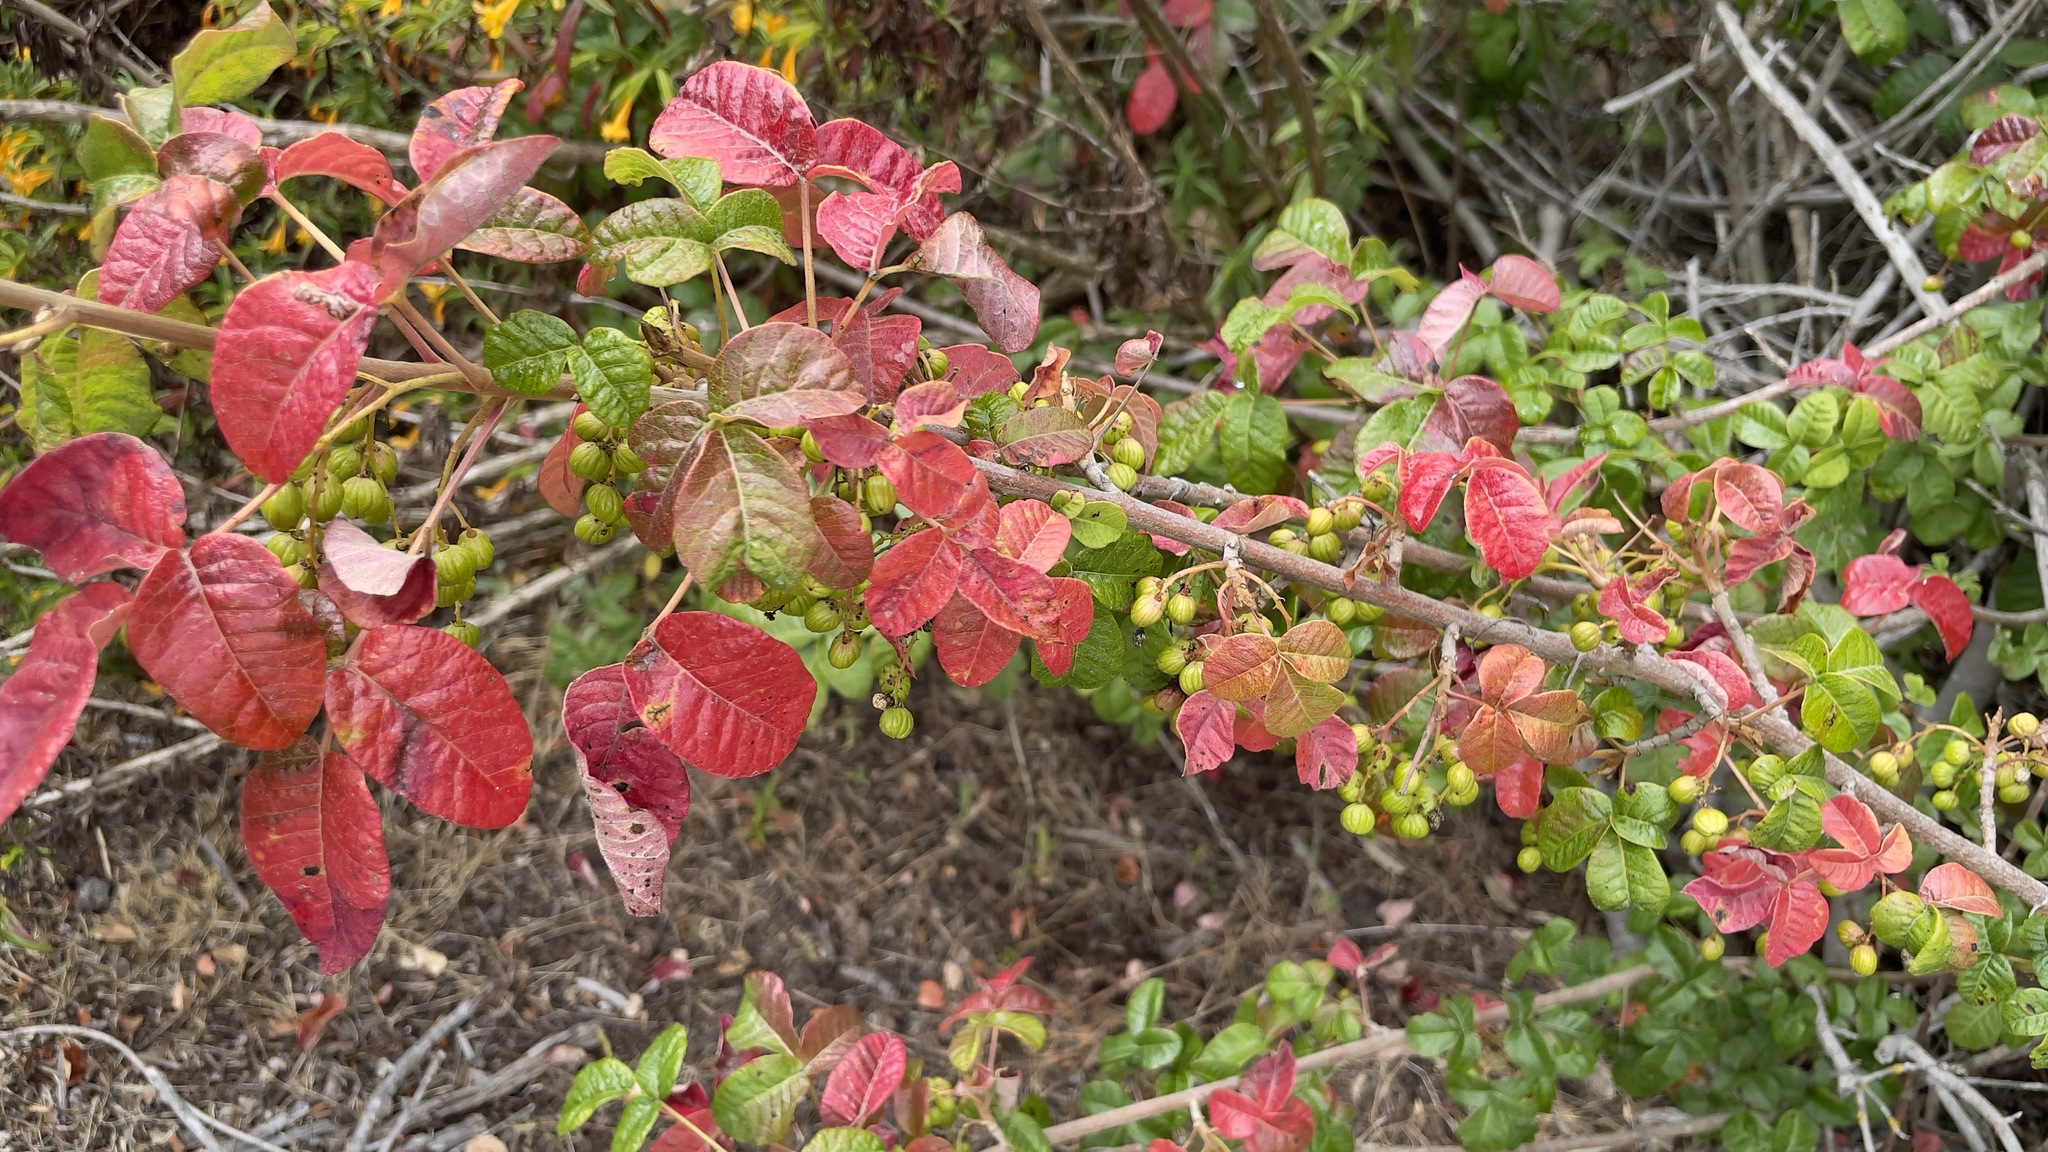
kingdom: Plantae
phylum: Tracheophyta
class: Magnoliopsida
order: Sapindales
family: Anacardiaceae
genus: Toxicodendron
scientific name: Toxicodendron diversilobum
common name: Pacific poison-oak
